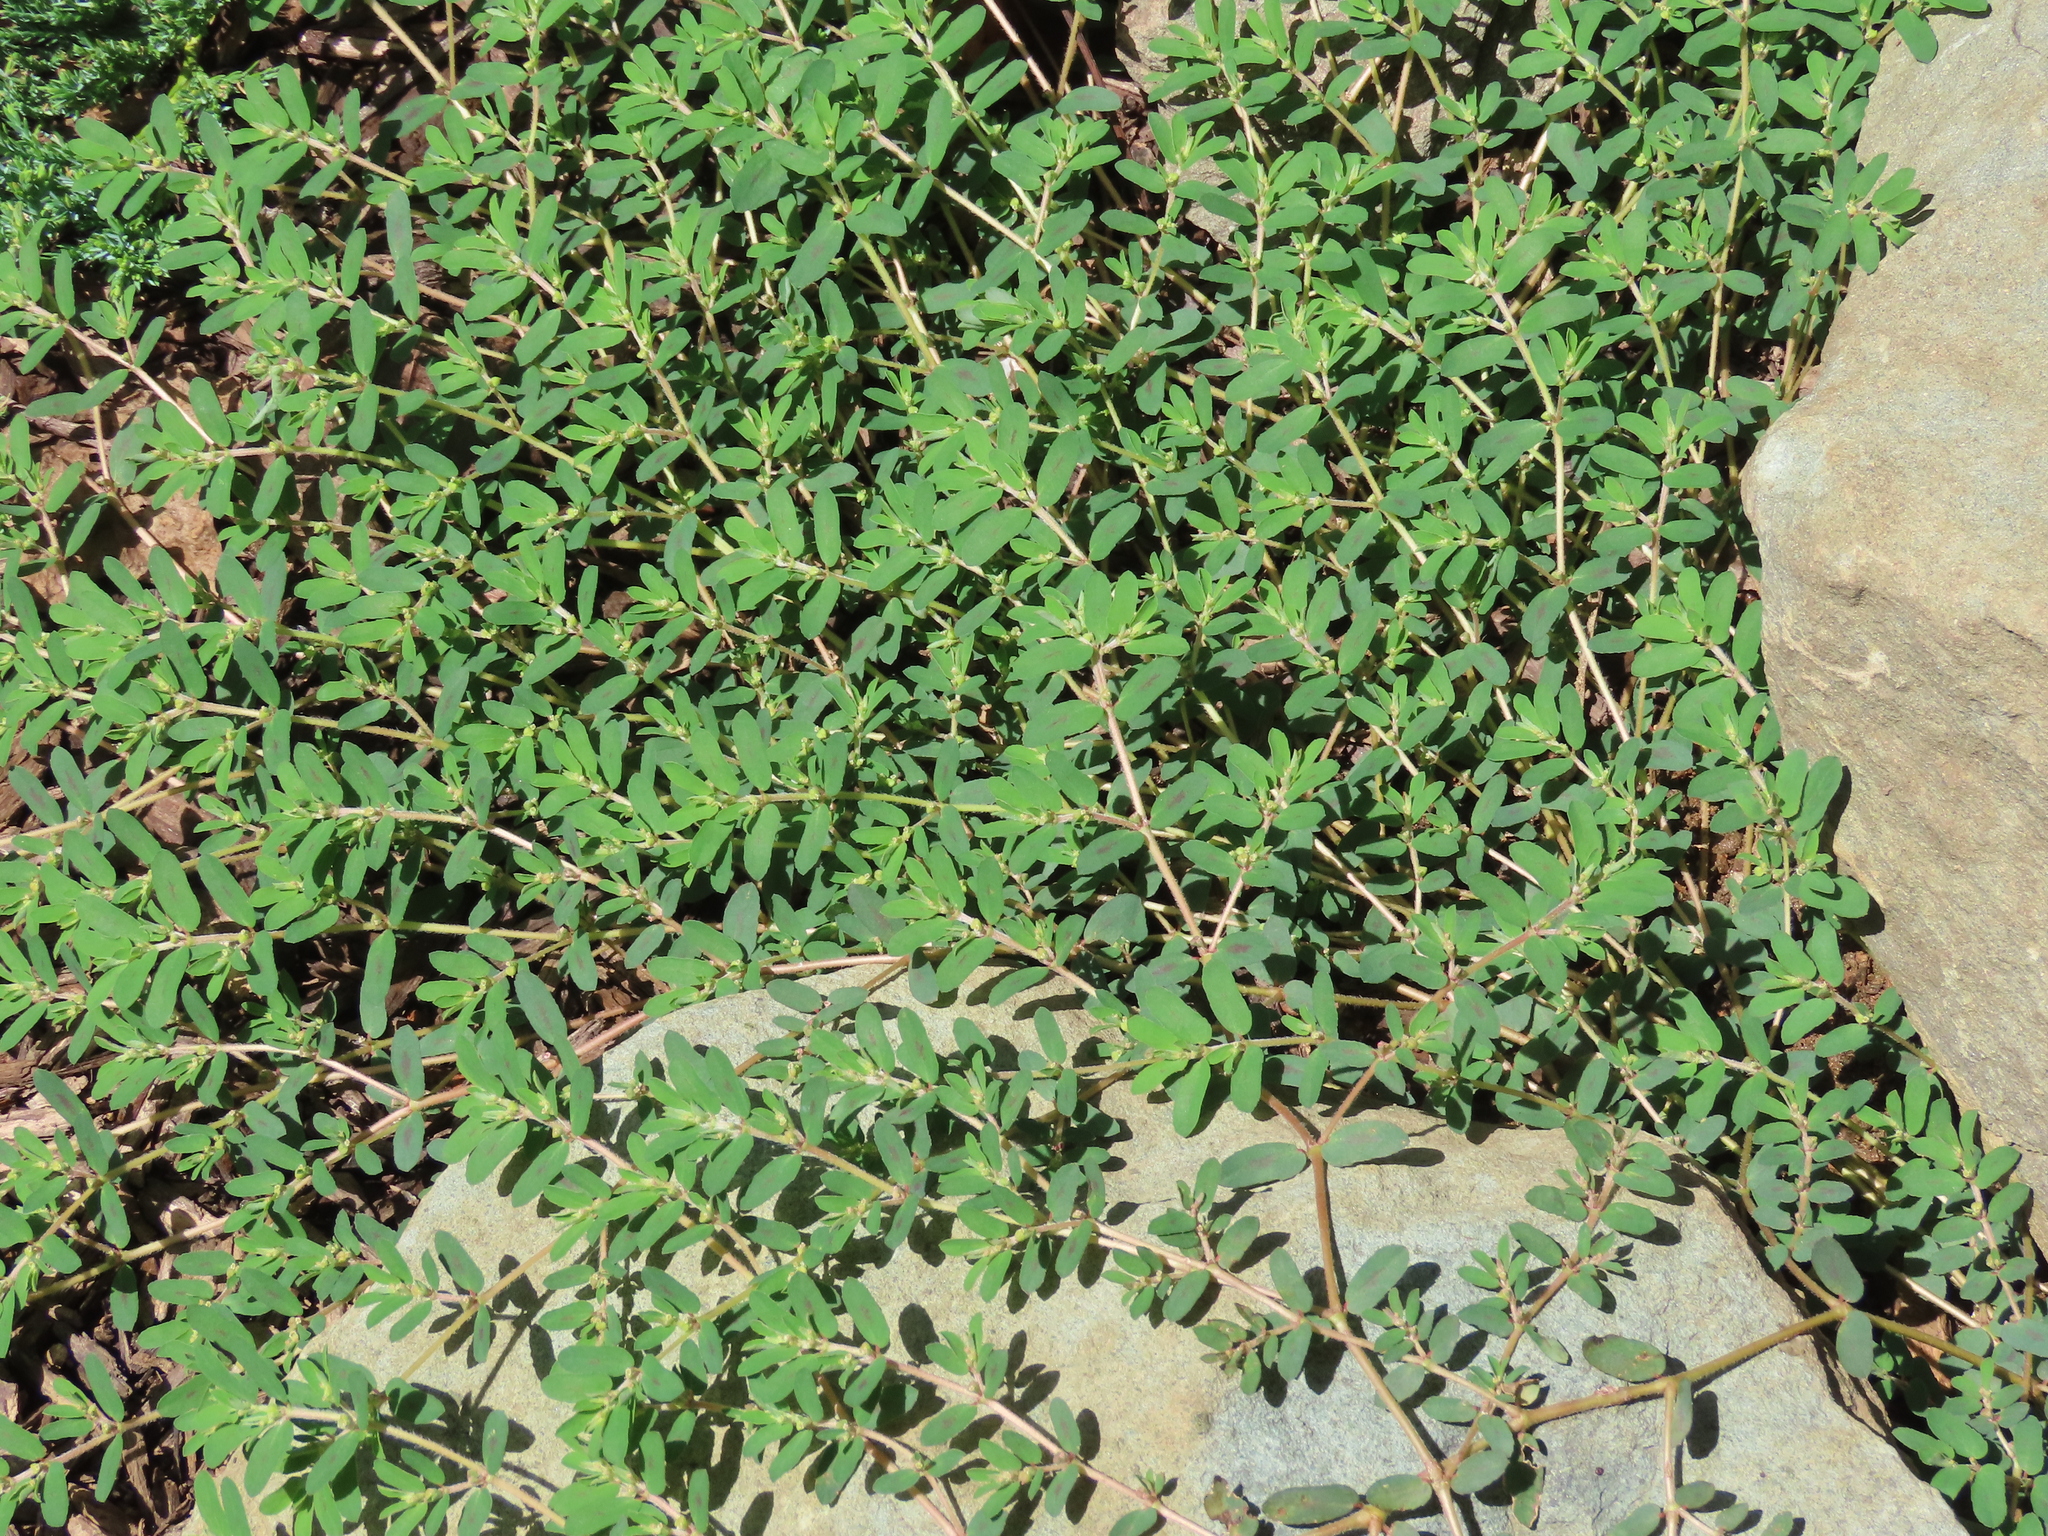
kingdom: Plantae
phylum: Tracheophyta
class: Magnoliopsida
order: Malpighiales
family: Euphorbiaceae
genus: Euphorbia
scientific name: Euphorbia maculata
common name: Spotted spurge
